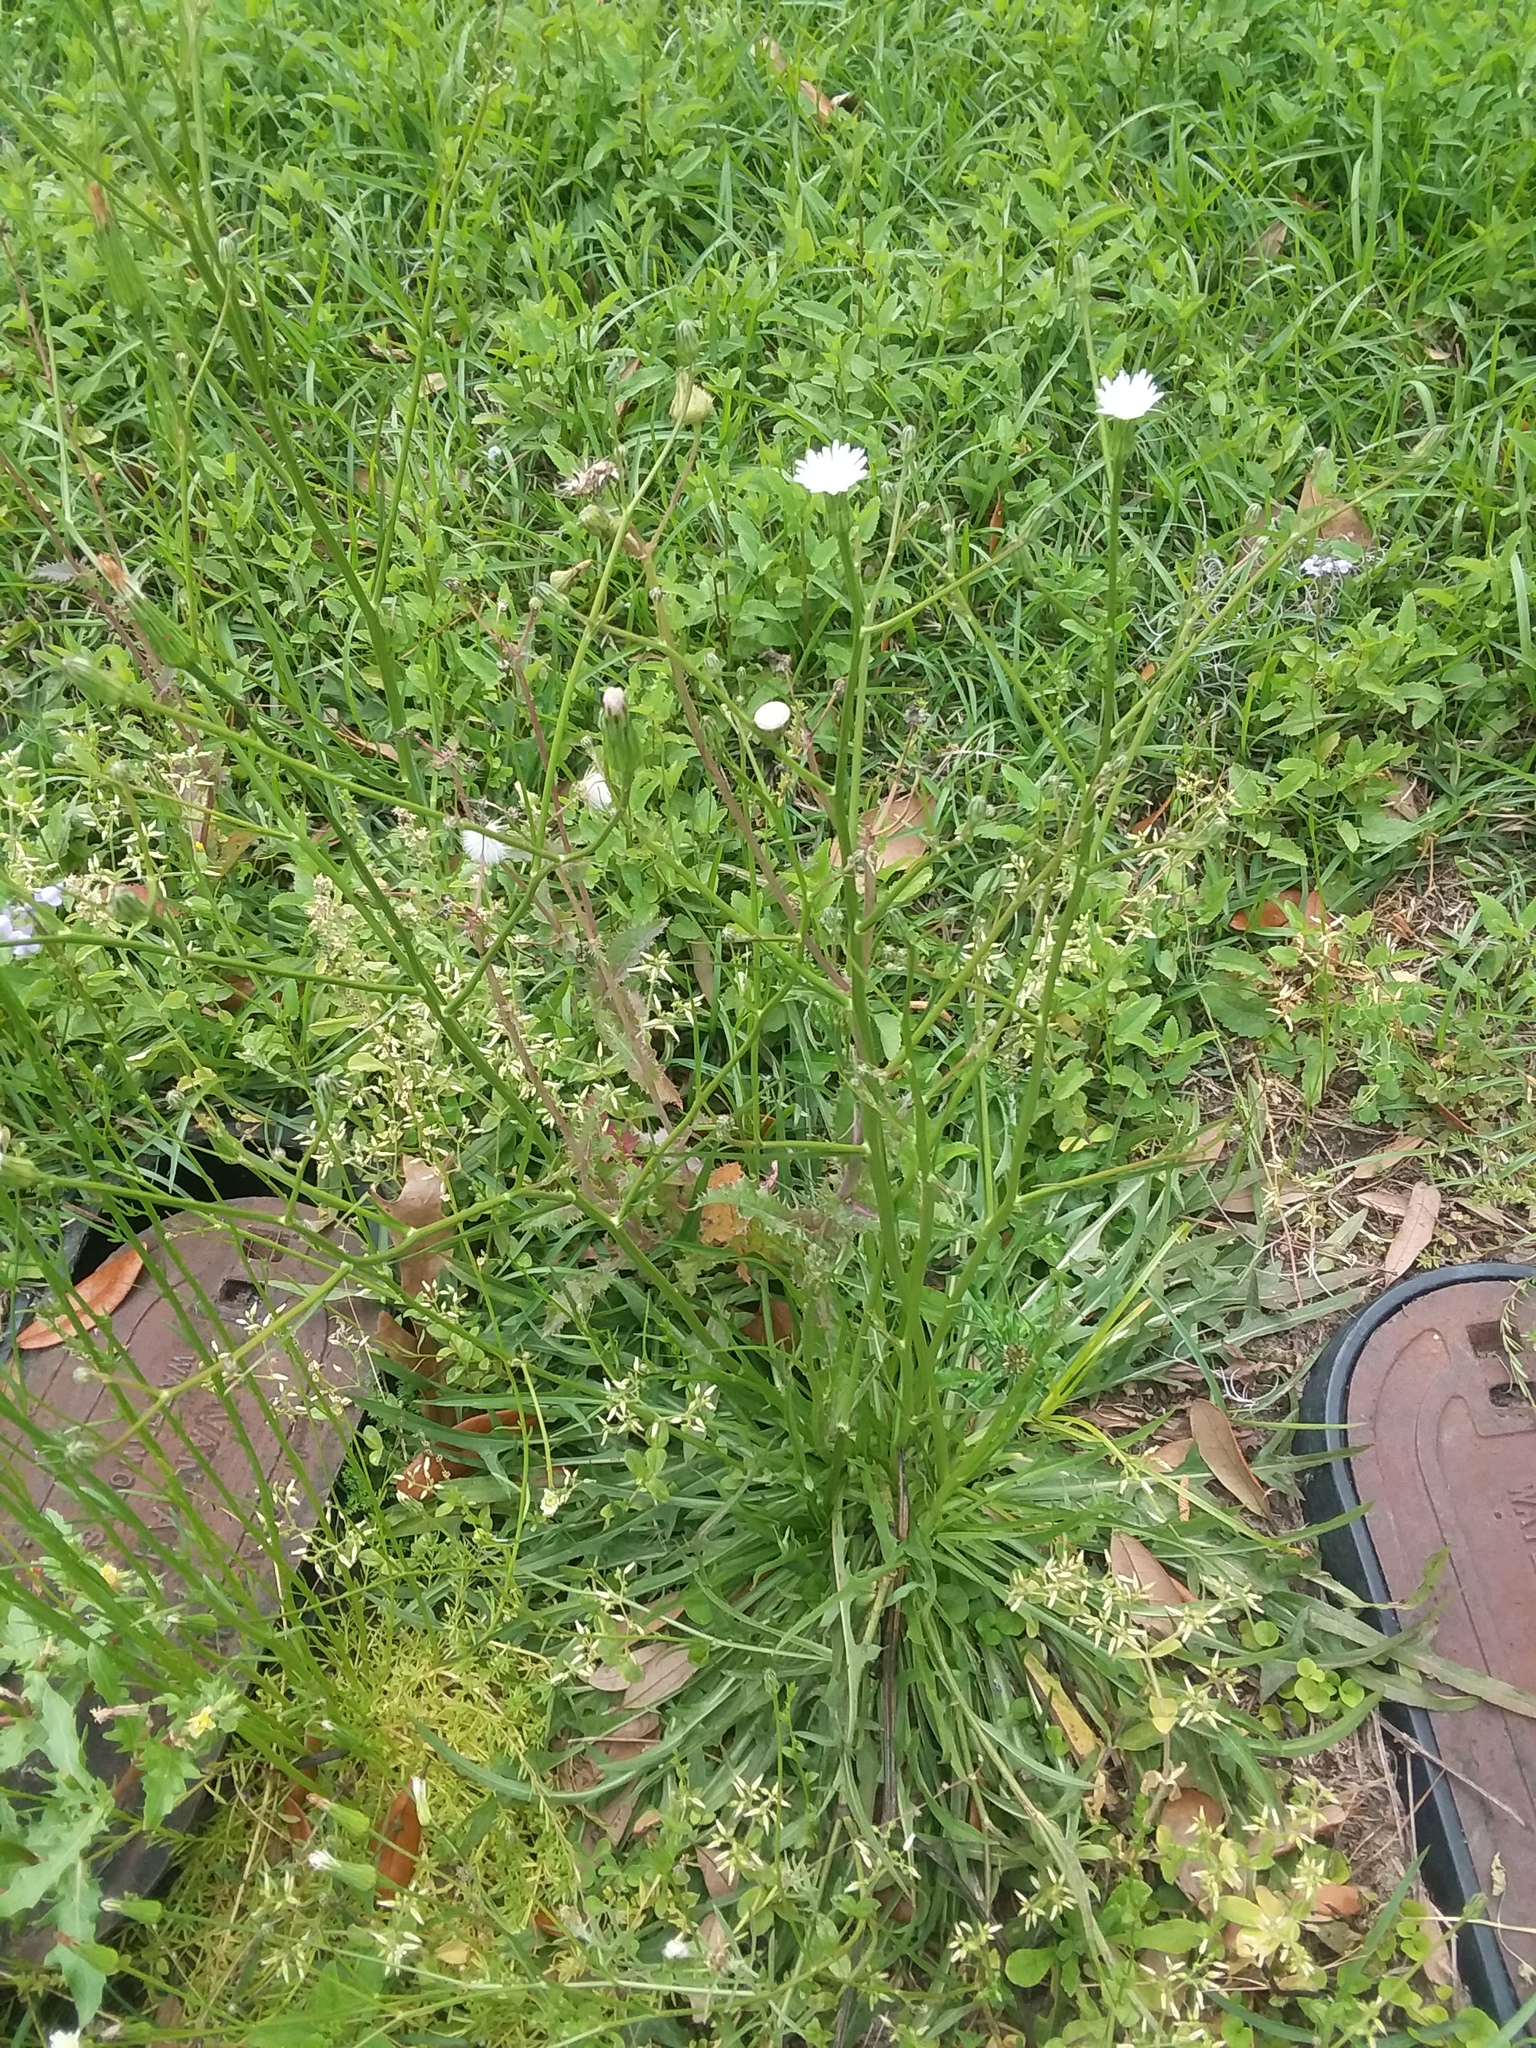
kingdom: Plantae
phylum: Tracheophyta
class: Magnoliopsida
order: Asterales
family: Asteraceae
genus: Hypochaeris
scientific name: Hypochaeris albiflora
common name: White flatweed
